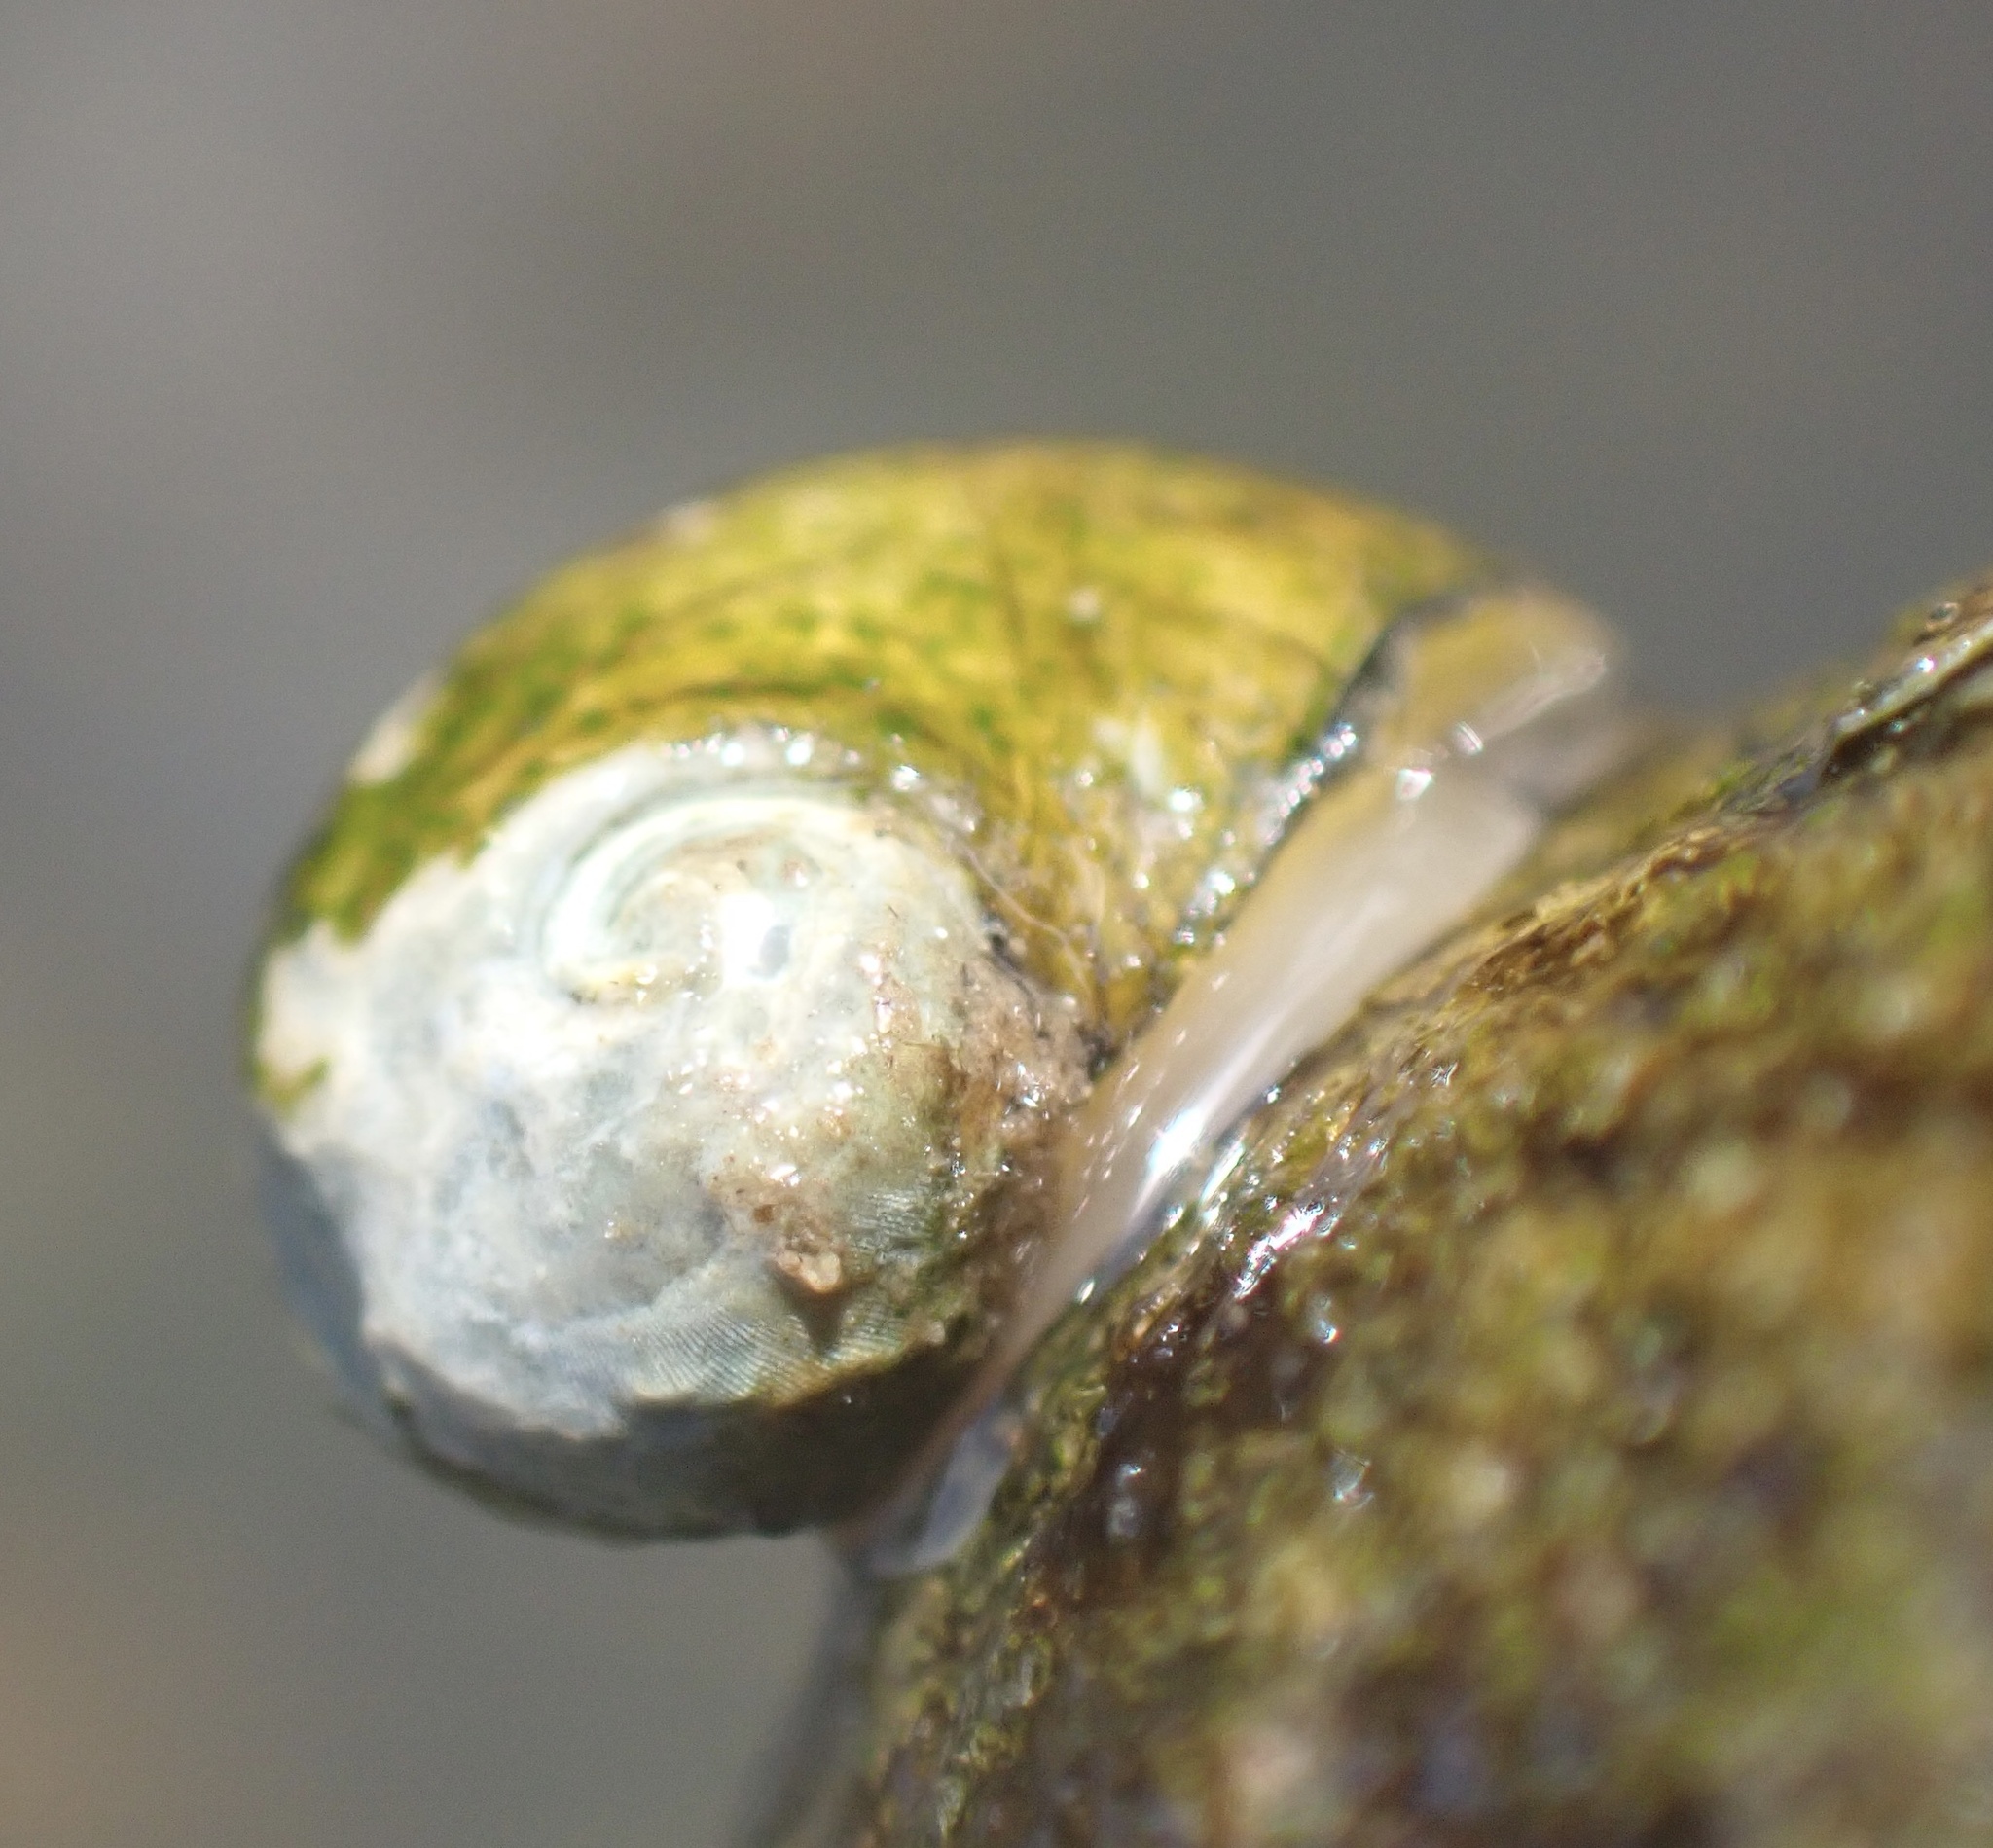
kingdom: Animalia
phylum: Mollusca
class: Gastropoda
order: Cycloneritida
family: Neritidae
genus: Theodoxus
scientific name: Theodoxus fluviatilis
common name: River nerite
